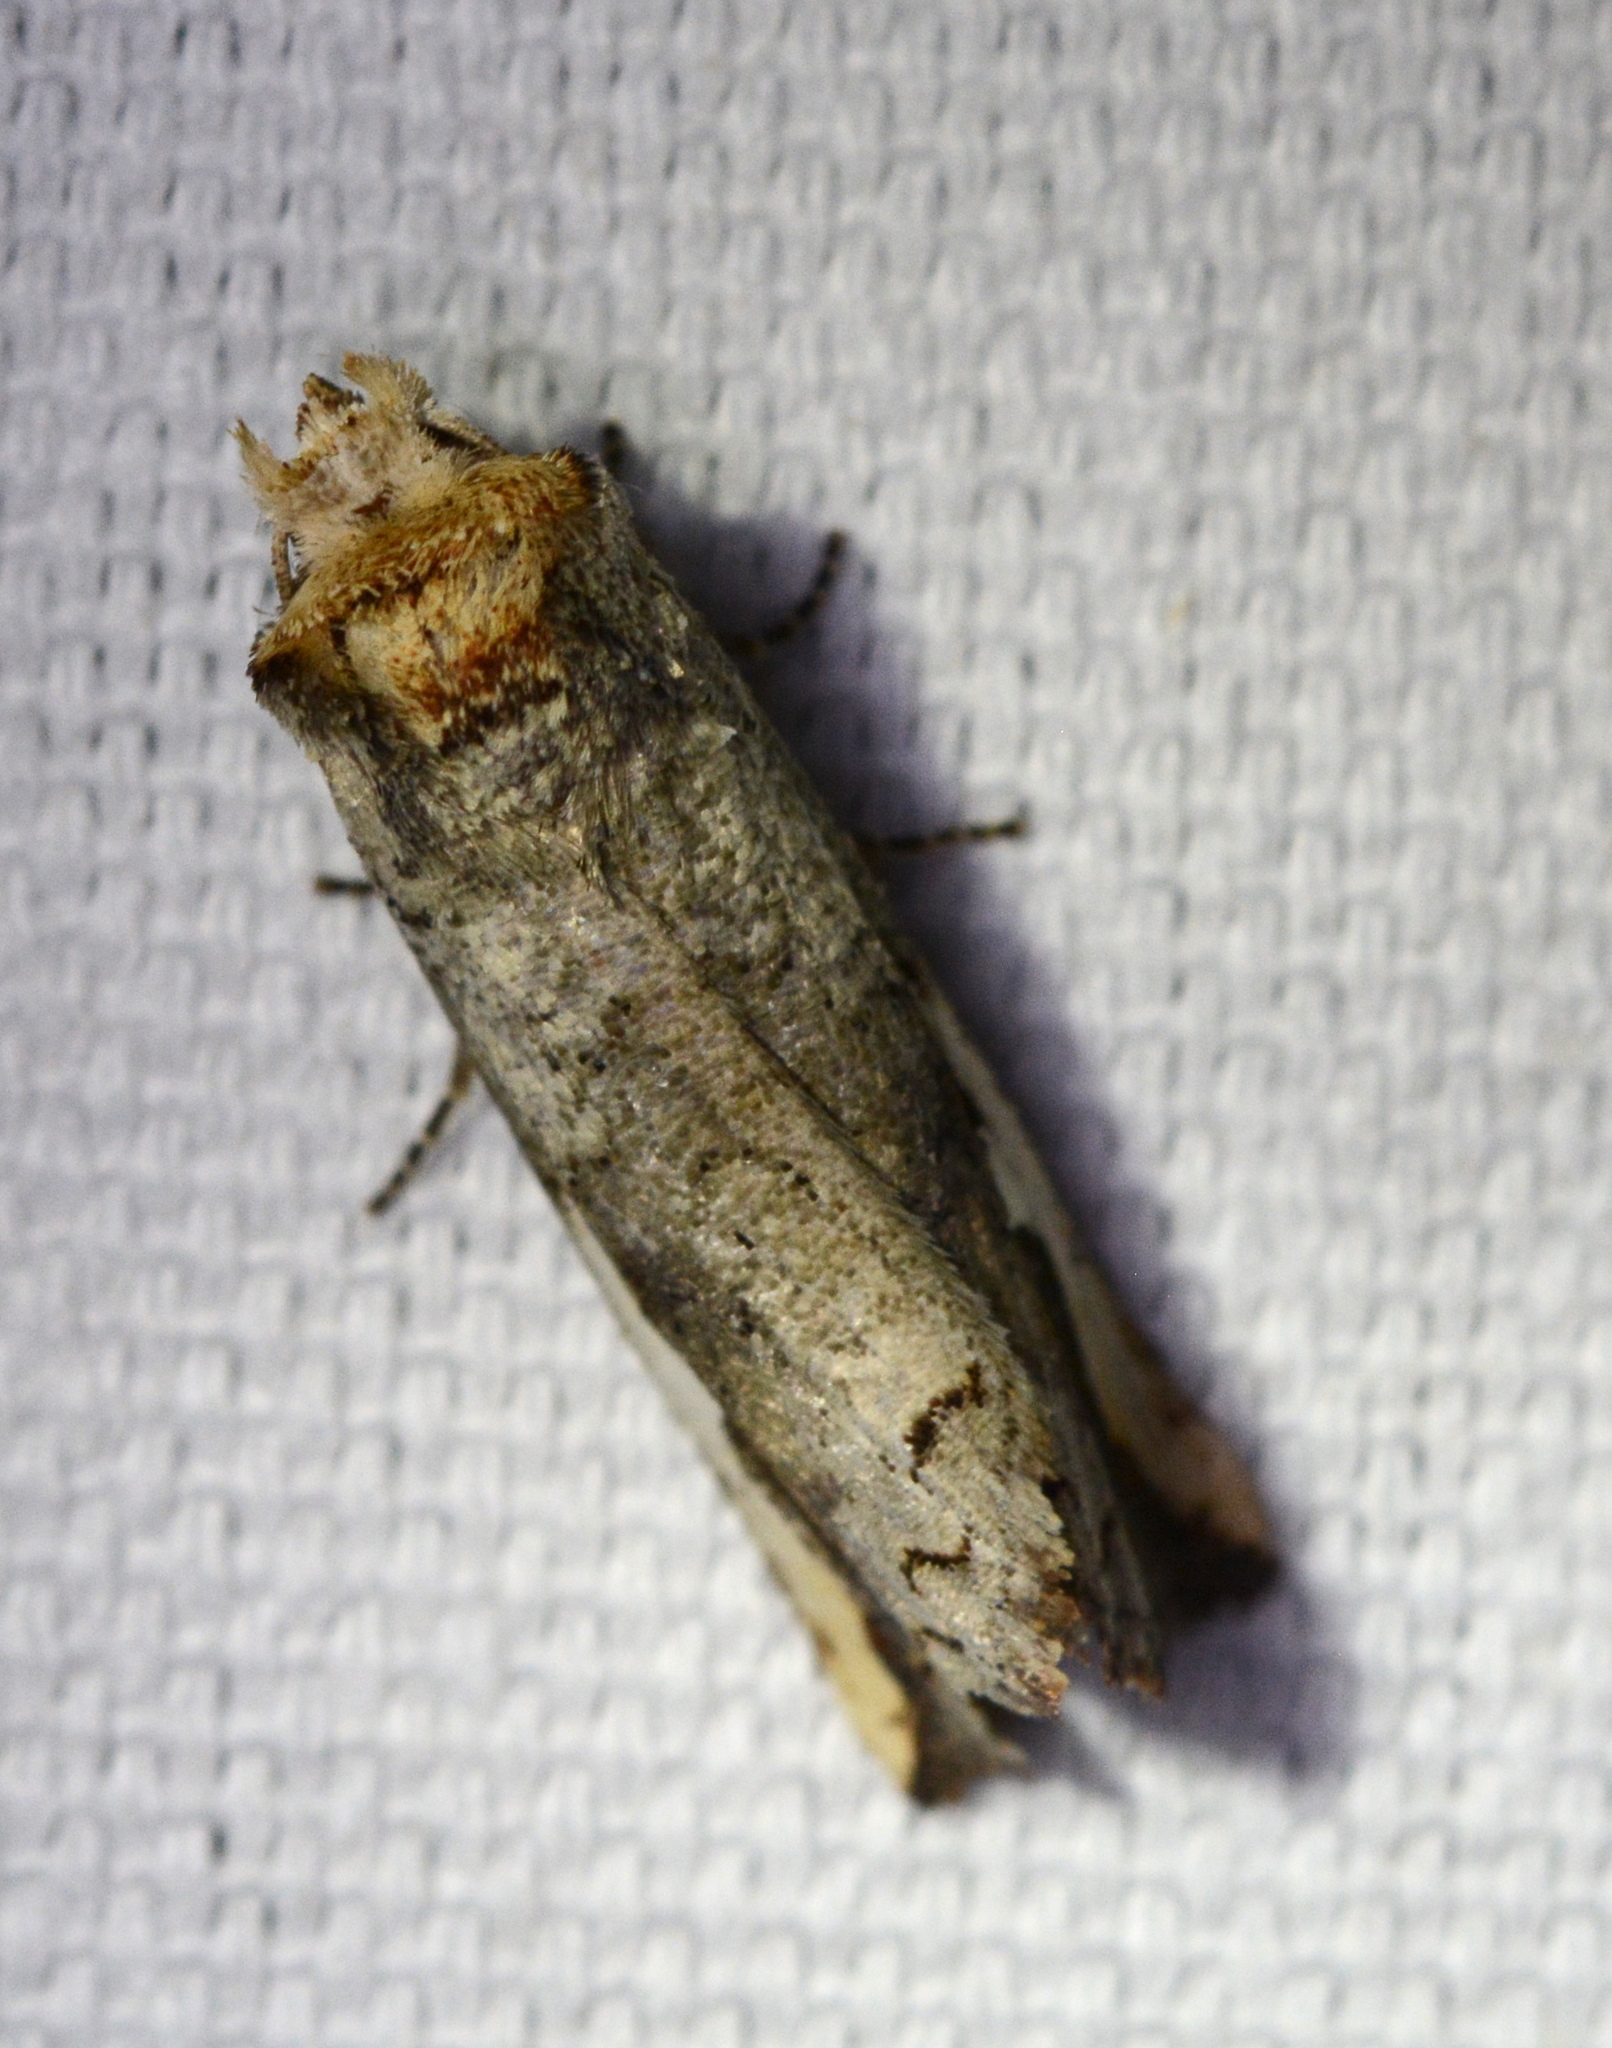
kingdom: Animalia
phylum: Arthropoda
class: Insecta
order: Lepidoptera
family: Notodontidae
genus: Symmerista
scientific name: Symmerista
